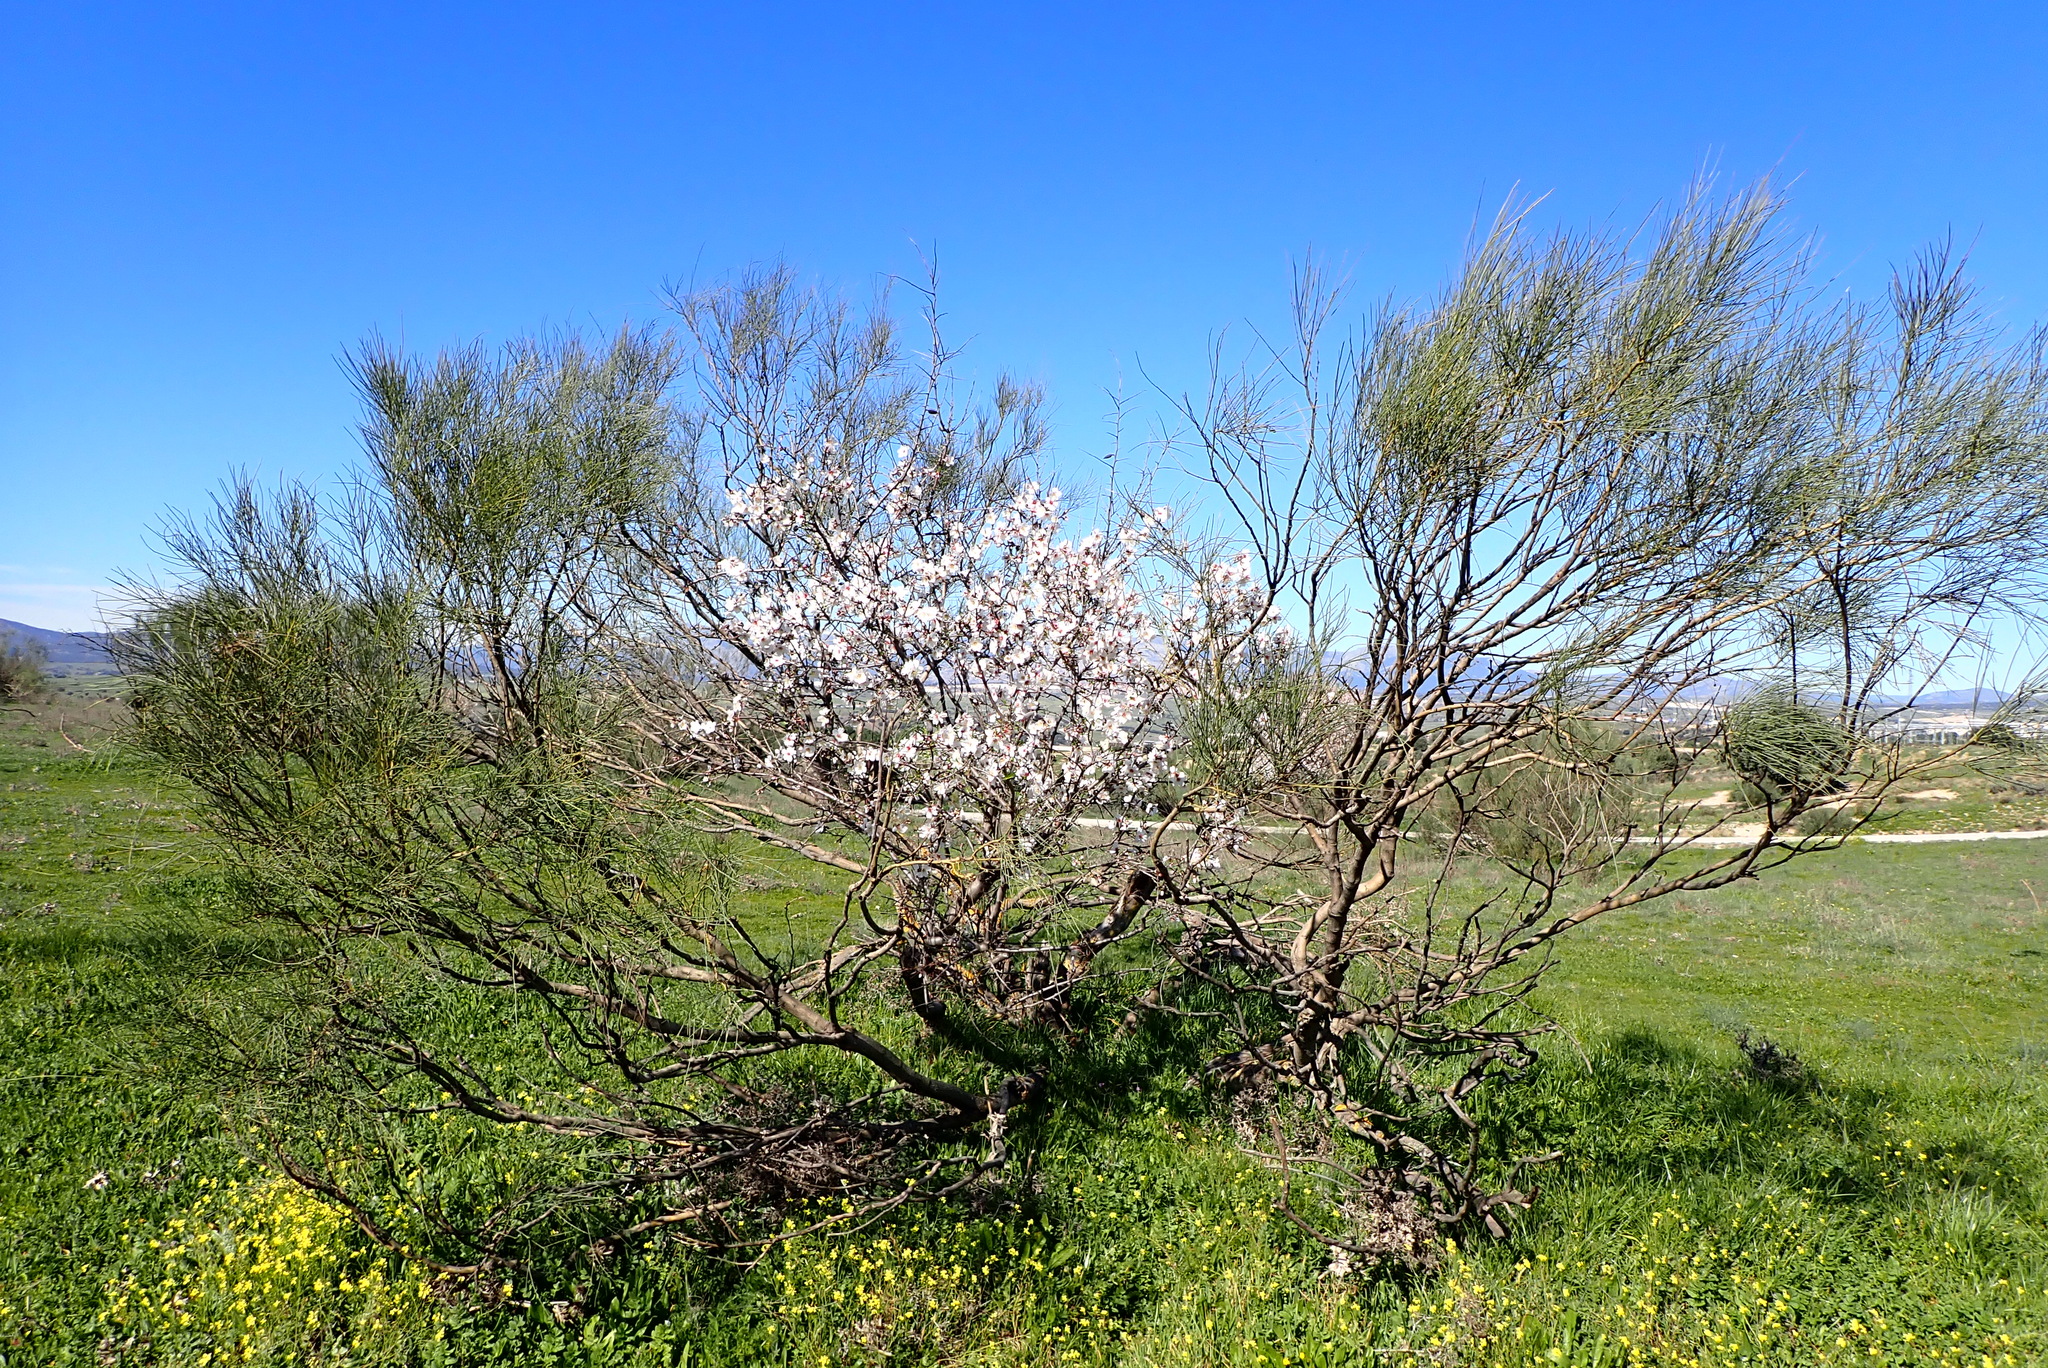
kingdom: Plantae
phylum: Tracheophyta
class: Magnoliopsida
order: Fabales
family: Fabaceae
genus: Retama
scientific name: Retama sphaerocarpa
